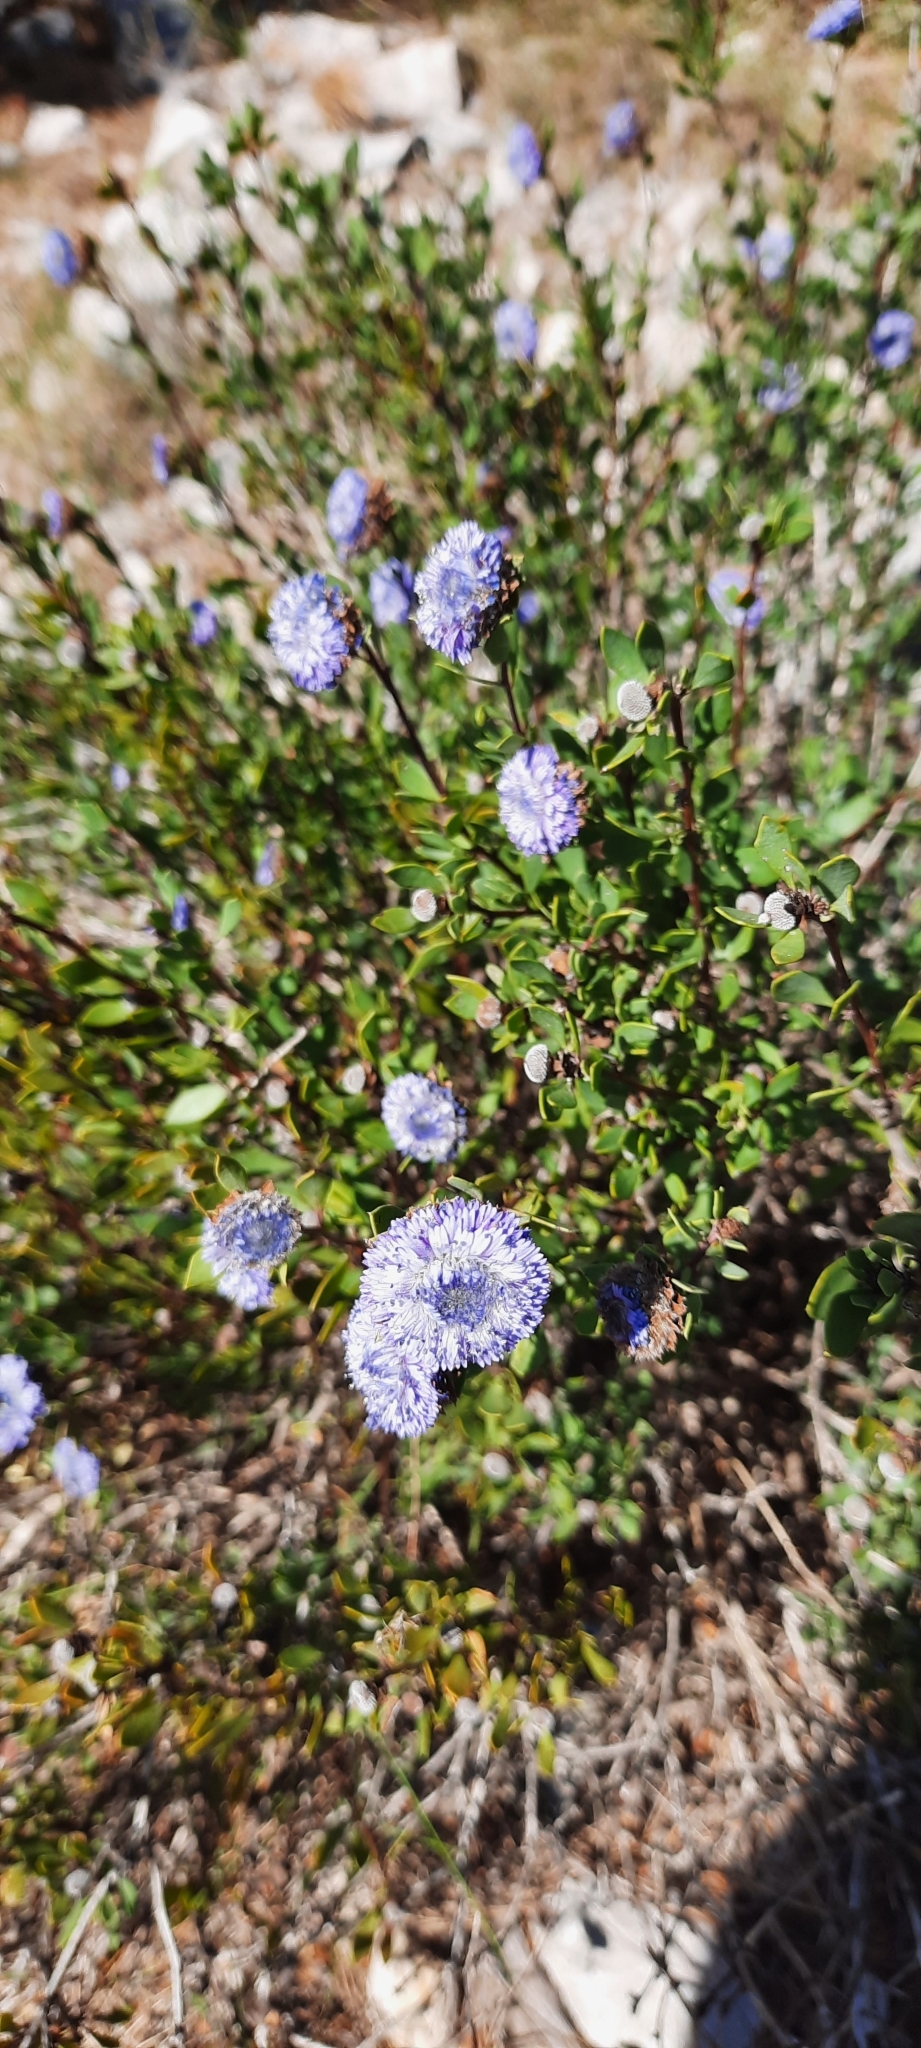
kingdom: Plantae
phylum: Tracheophyta
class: Magnoliopsida
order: Lamiales
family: Plantaginaceae
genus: Globularia
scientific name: Globularia alypum
